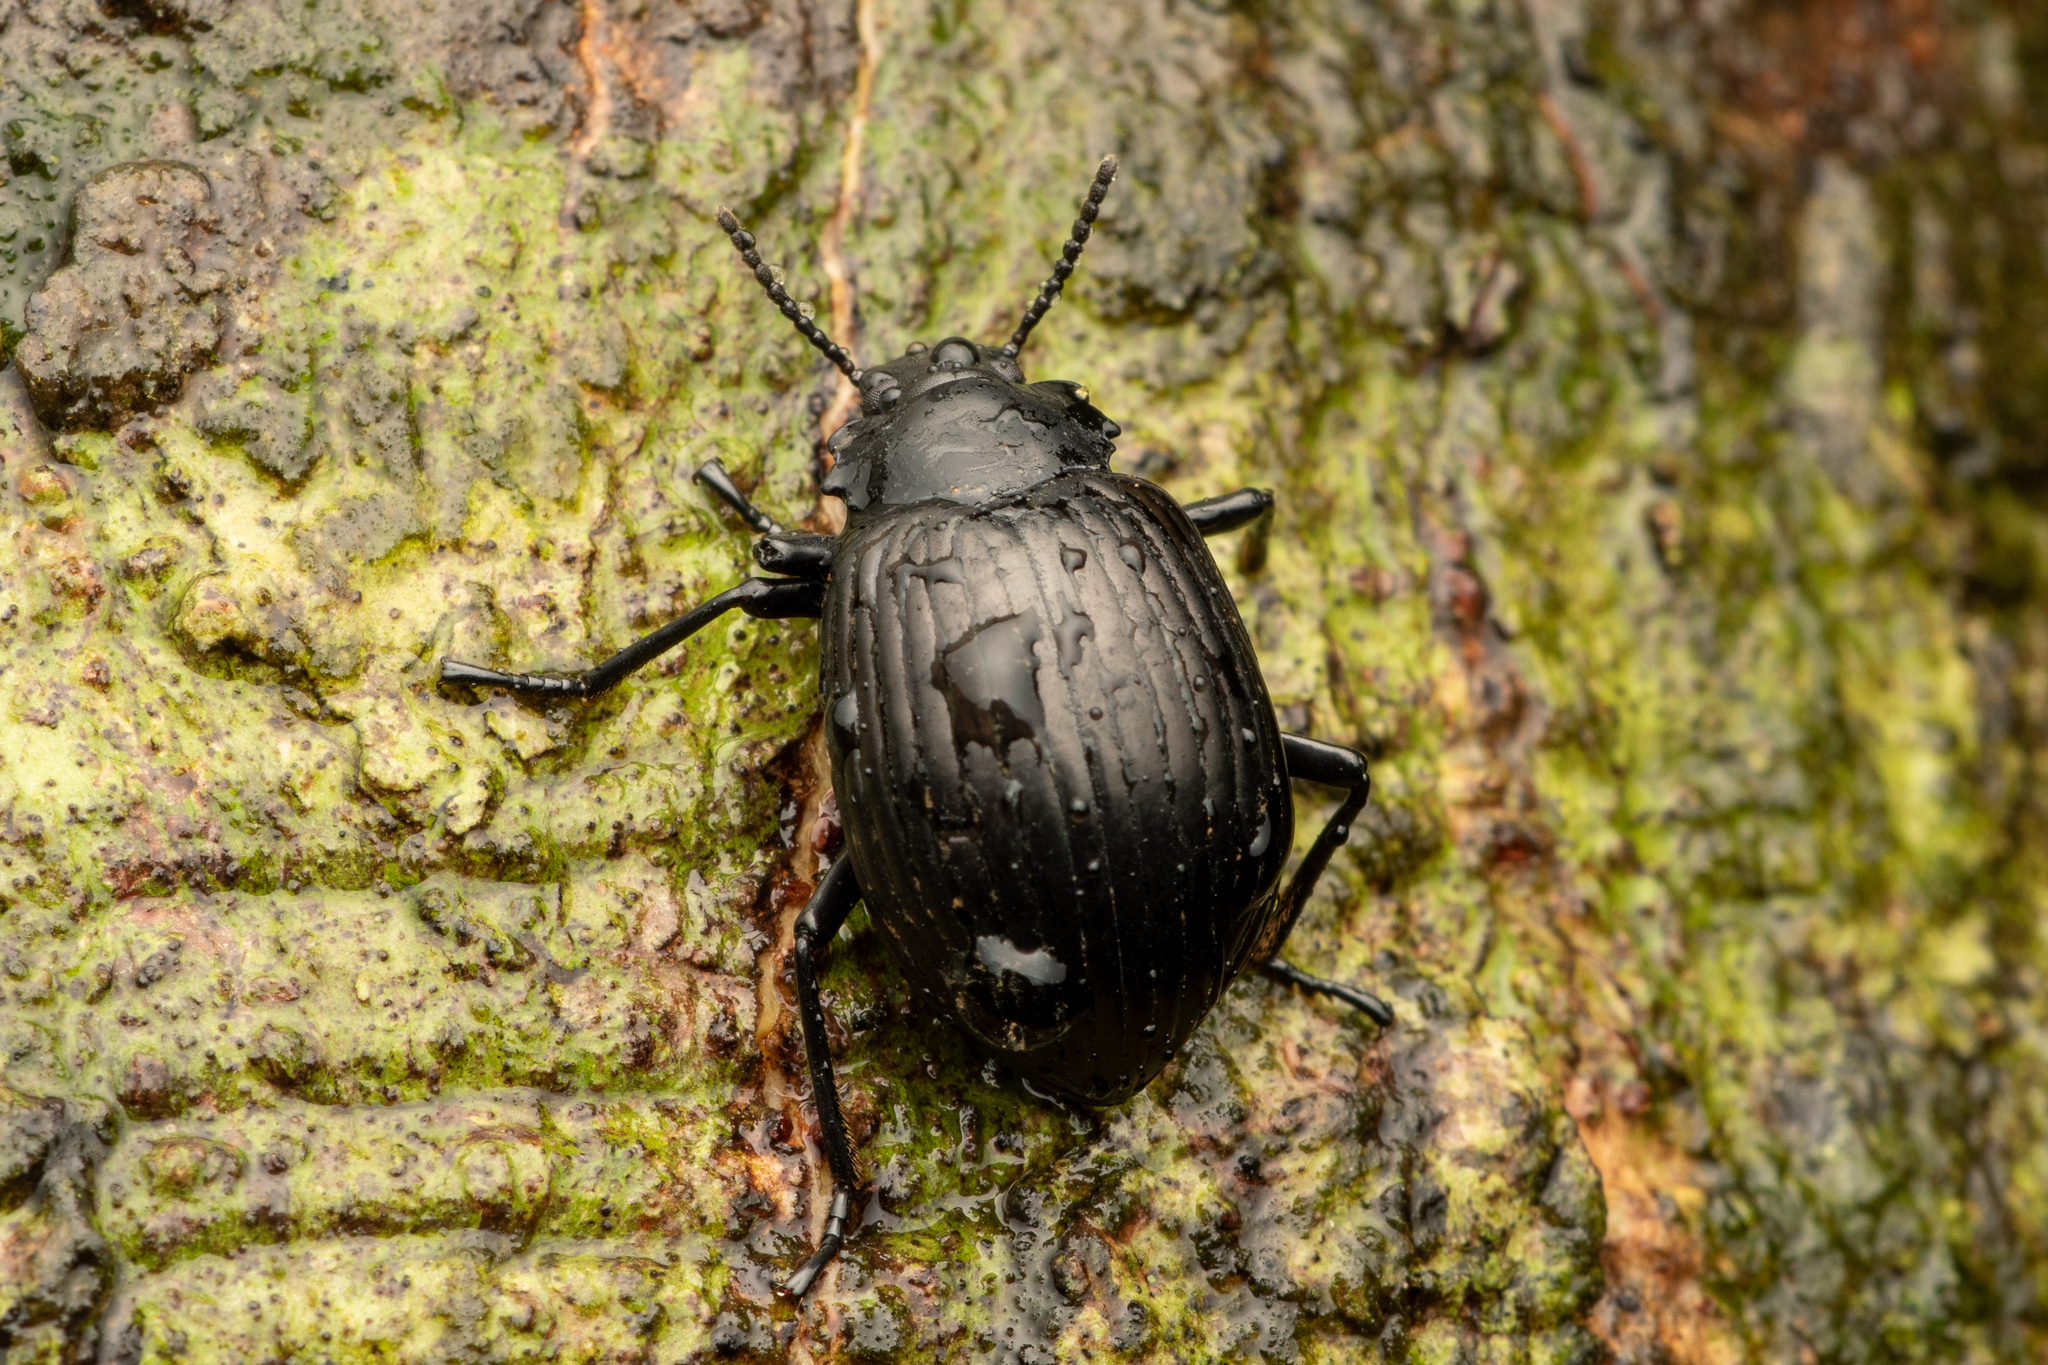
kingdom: Animalia
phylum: Arthropoda
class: Insecta
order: Coleoptera
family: Tenebrionidae
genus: Cyrtosoma
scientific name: Cyrtosoma denticolle
